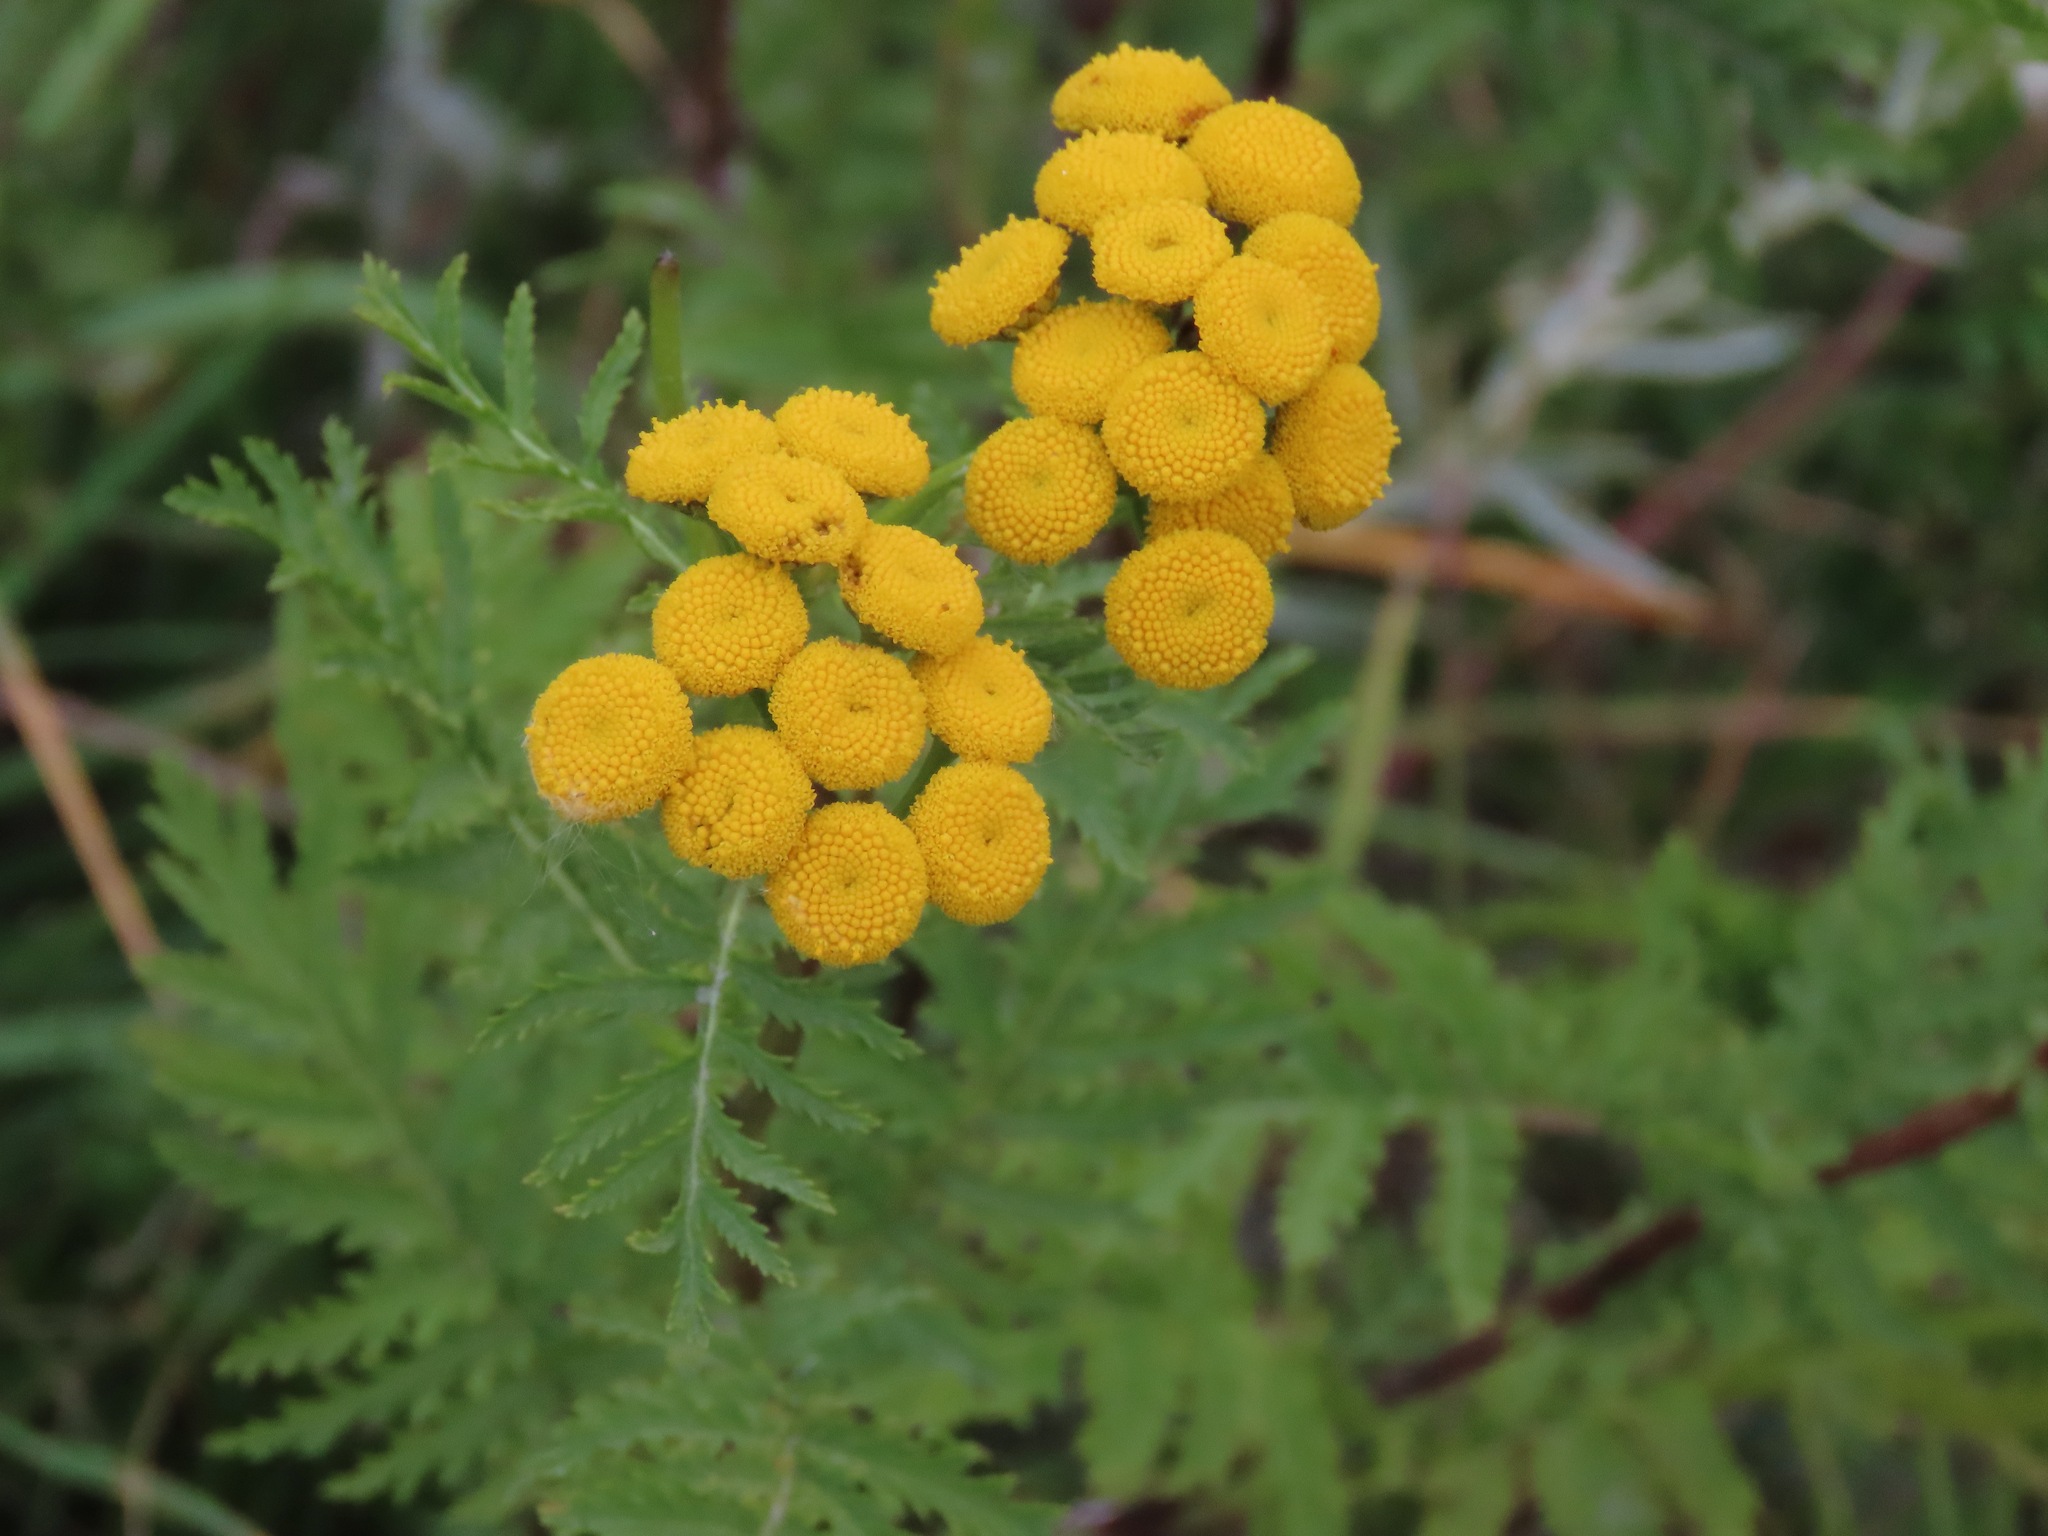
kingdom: Plantae
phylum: Tracheophyta
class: Magnoliopsida
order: Asterales
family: Asteraceae
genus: Tanacetum
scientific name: Tanacetum vulgare
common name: Common tansy
